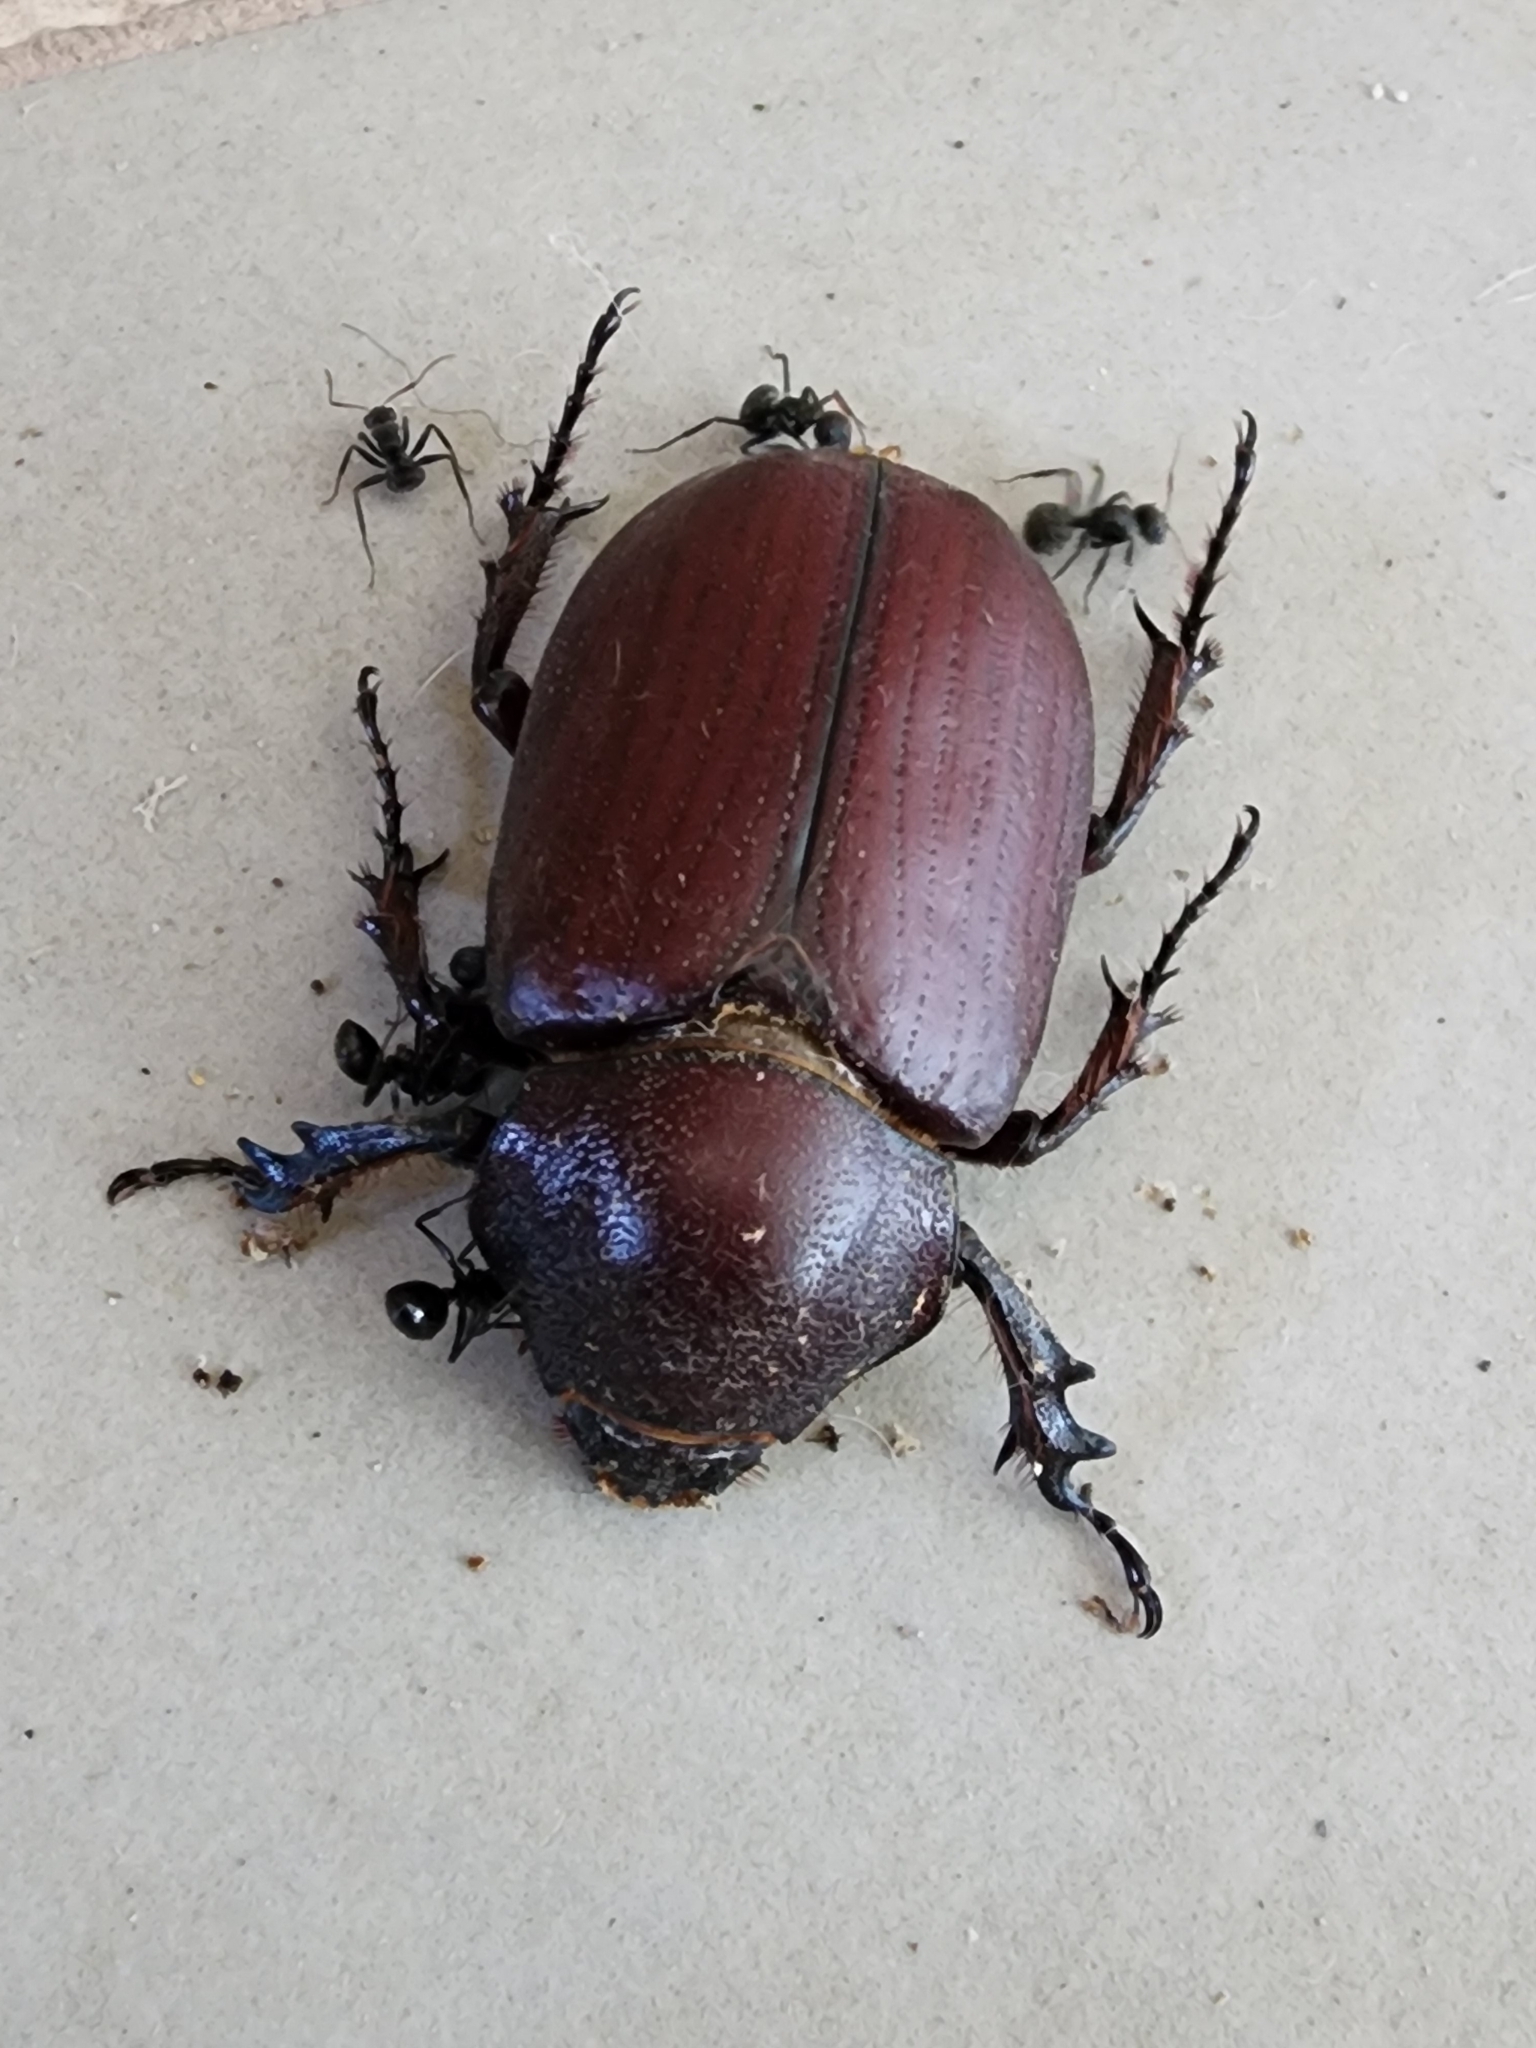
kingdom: Animalia
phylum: Arthropoda
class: Insecta
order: Coleoptera
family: Scarabaeidae
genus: Coelosis
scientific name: Coelosis biloba
